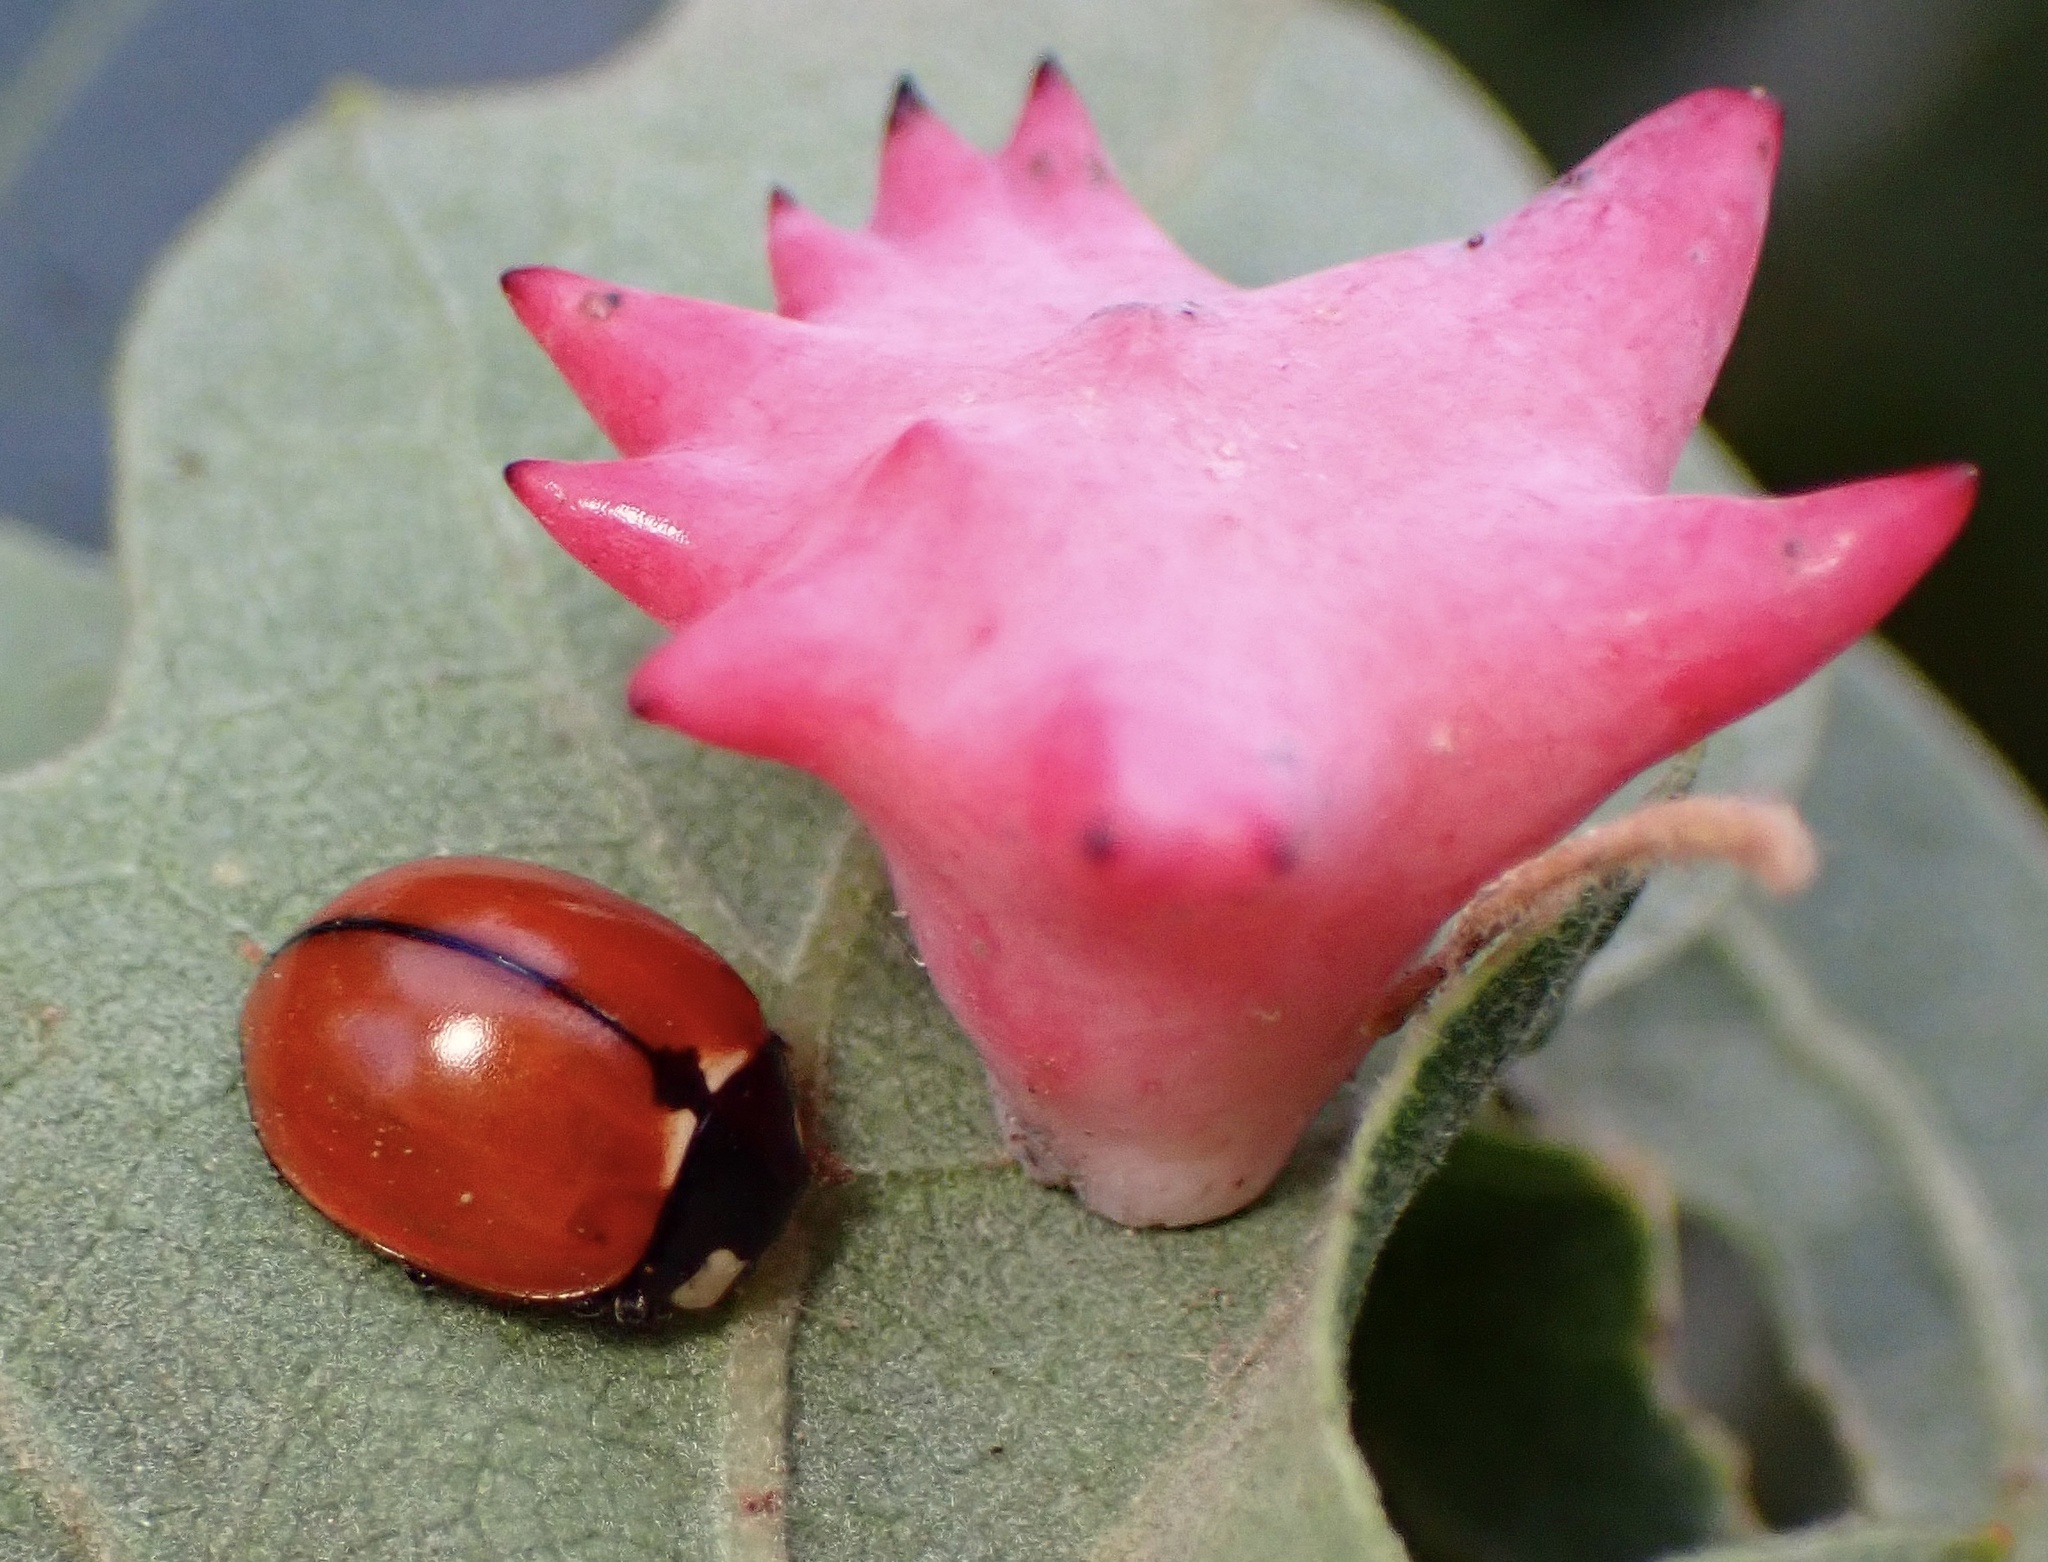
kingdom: Animalia
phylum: Arthropoda
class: Insecta
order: Coleoptera
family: Coccinellidae
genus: Coccinella
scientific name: Coccinella californica
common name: Lady beetle
